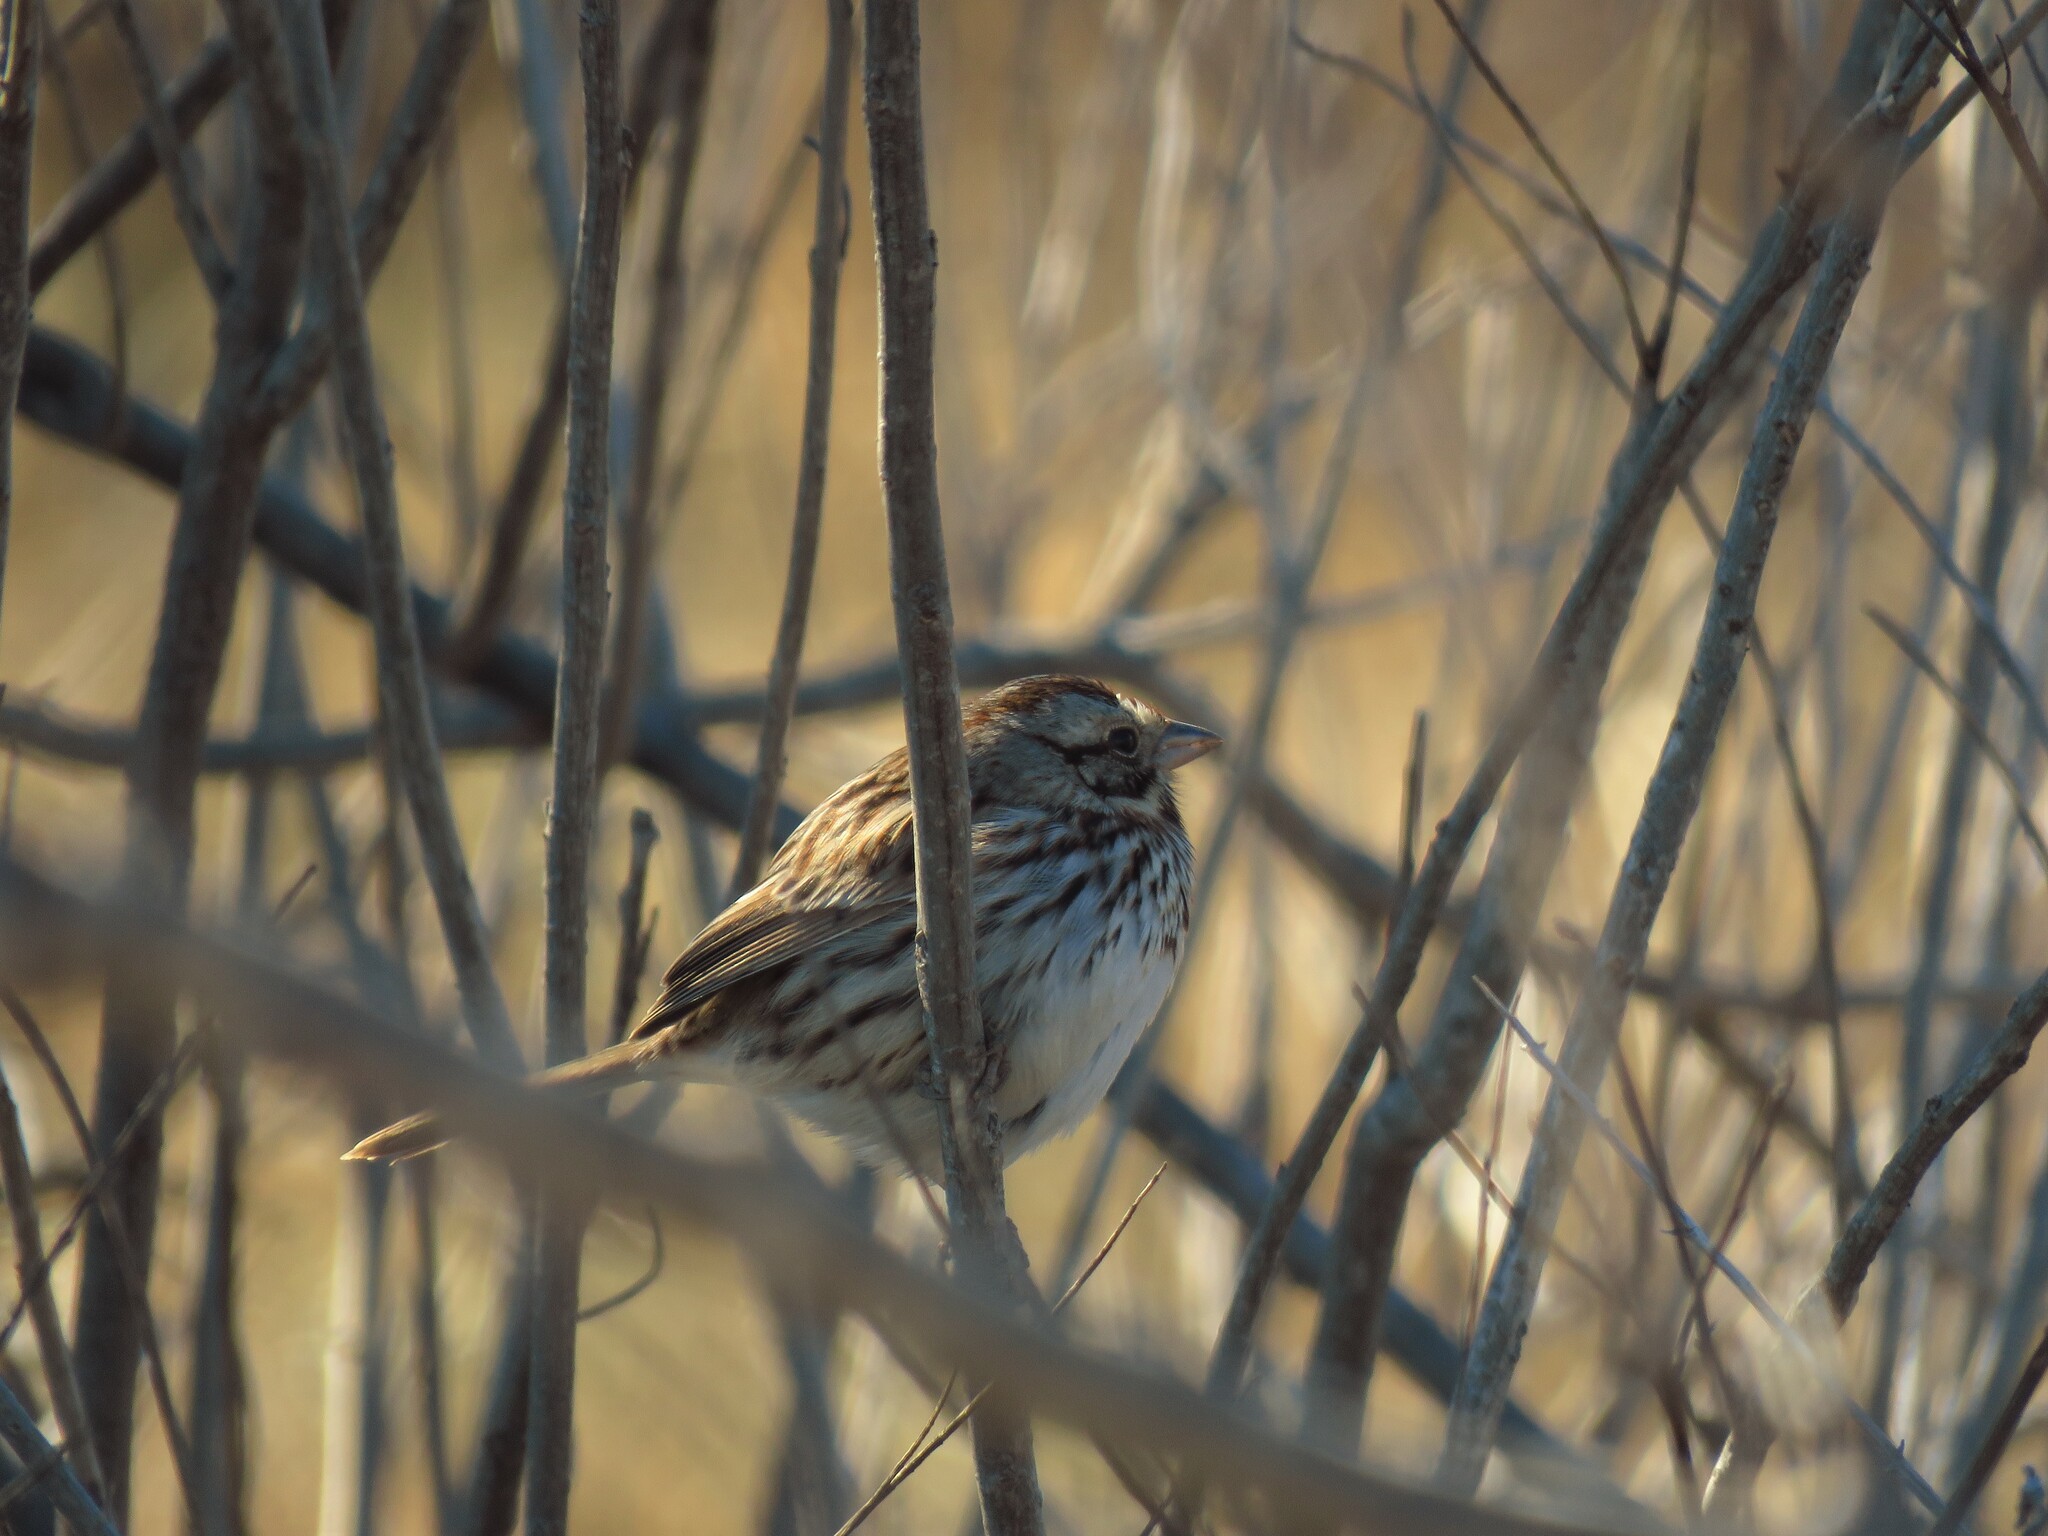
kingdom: Animalia
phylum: Chordata
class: Aves
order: Passeriformes
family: Passerellidae
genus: Melospiza
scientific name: Melospiza melodia
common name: Song sparrow
